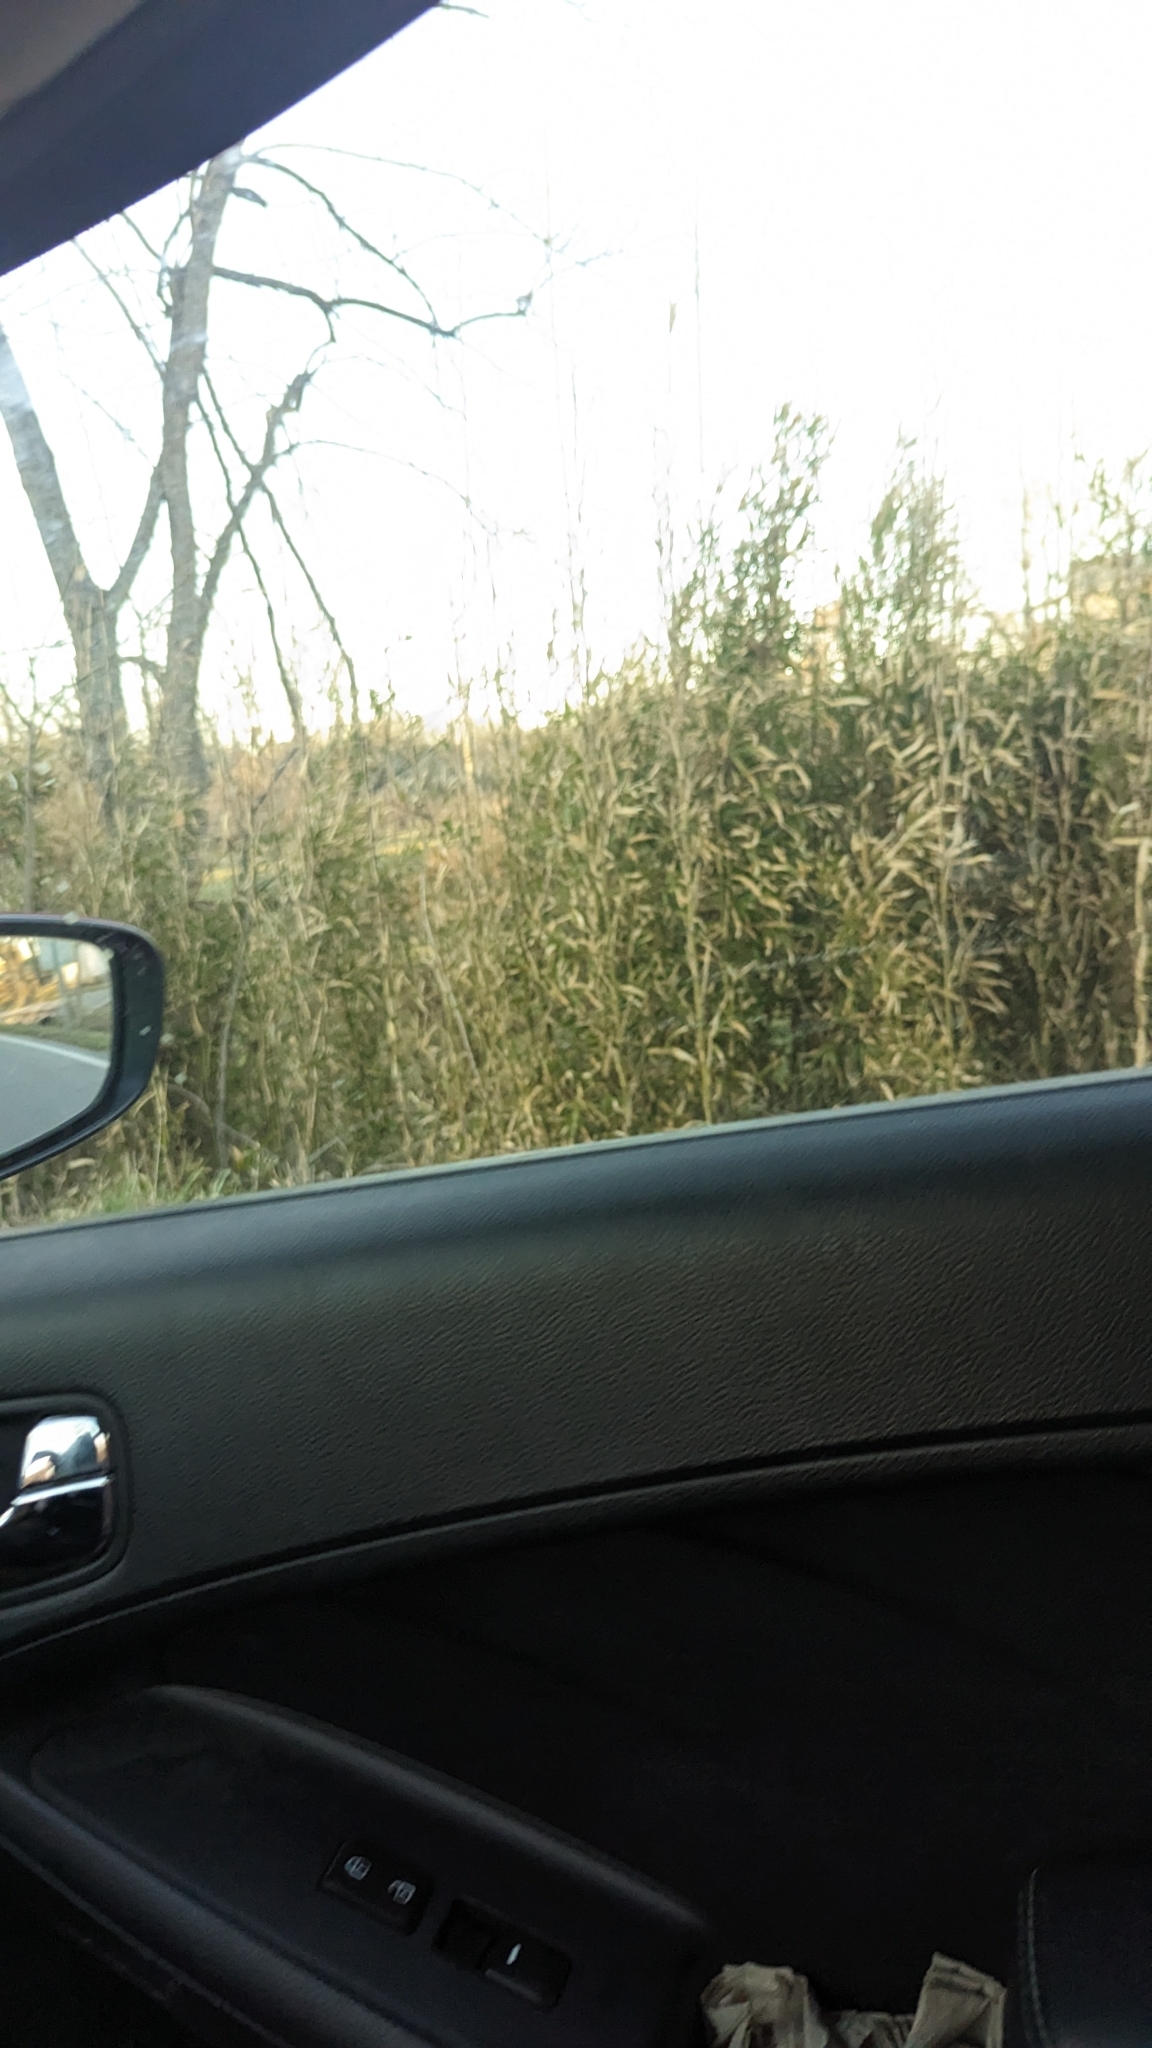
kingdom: Plantae
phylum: Tracheophyta
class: Liliopsida
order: Poales
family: Poaceae
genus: Arundinaria
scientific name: Arundinaria gigantea
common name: Giant cane
